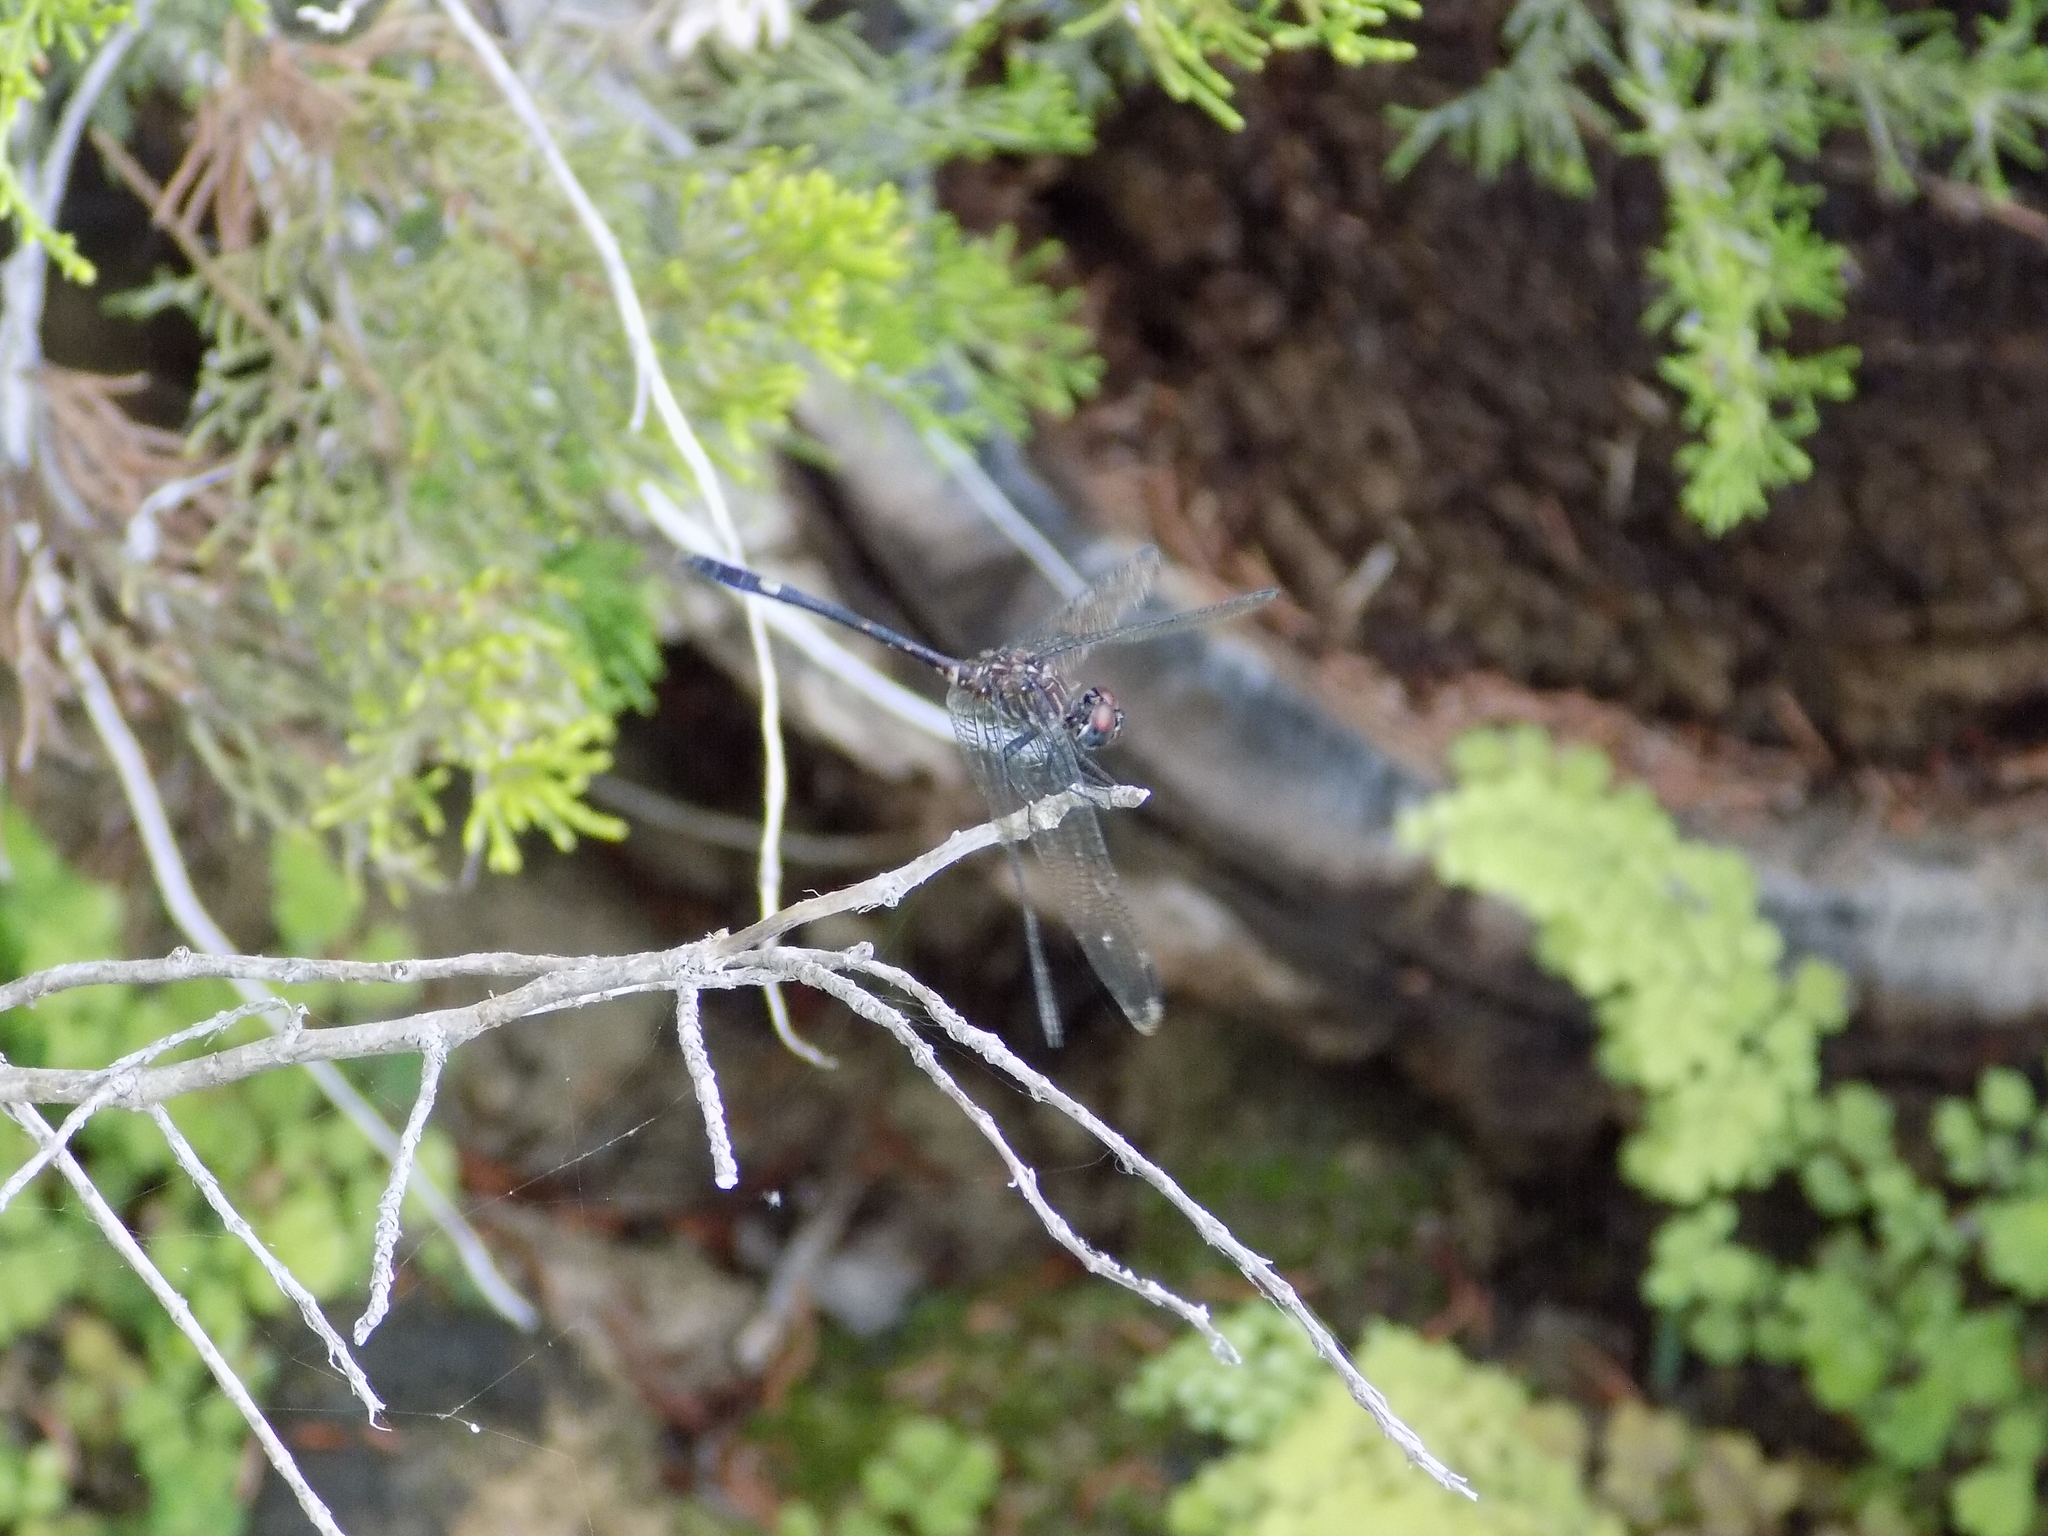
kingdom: Animalia
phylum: Arthropoda
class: Insecta
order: Odonata
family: Libellulidae
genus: Dythemis
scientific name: Dythemis velox
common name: Swift setwing
